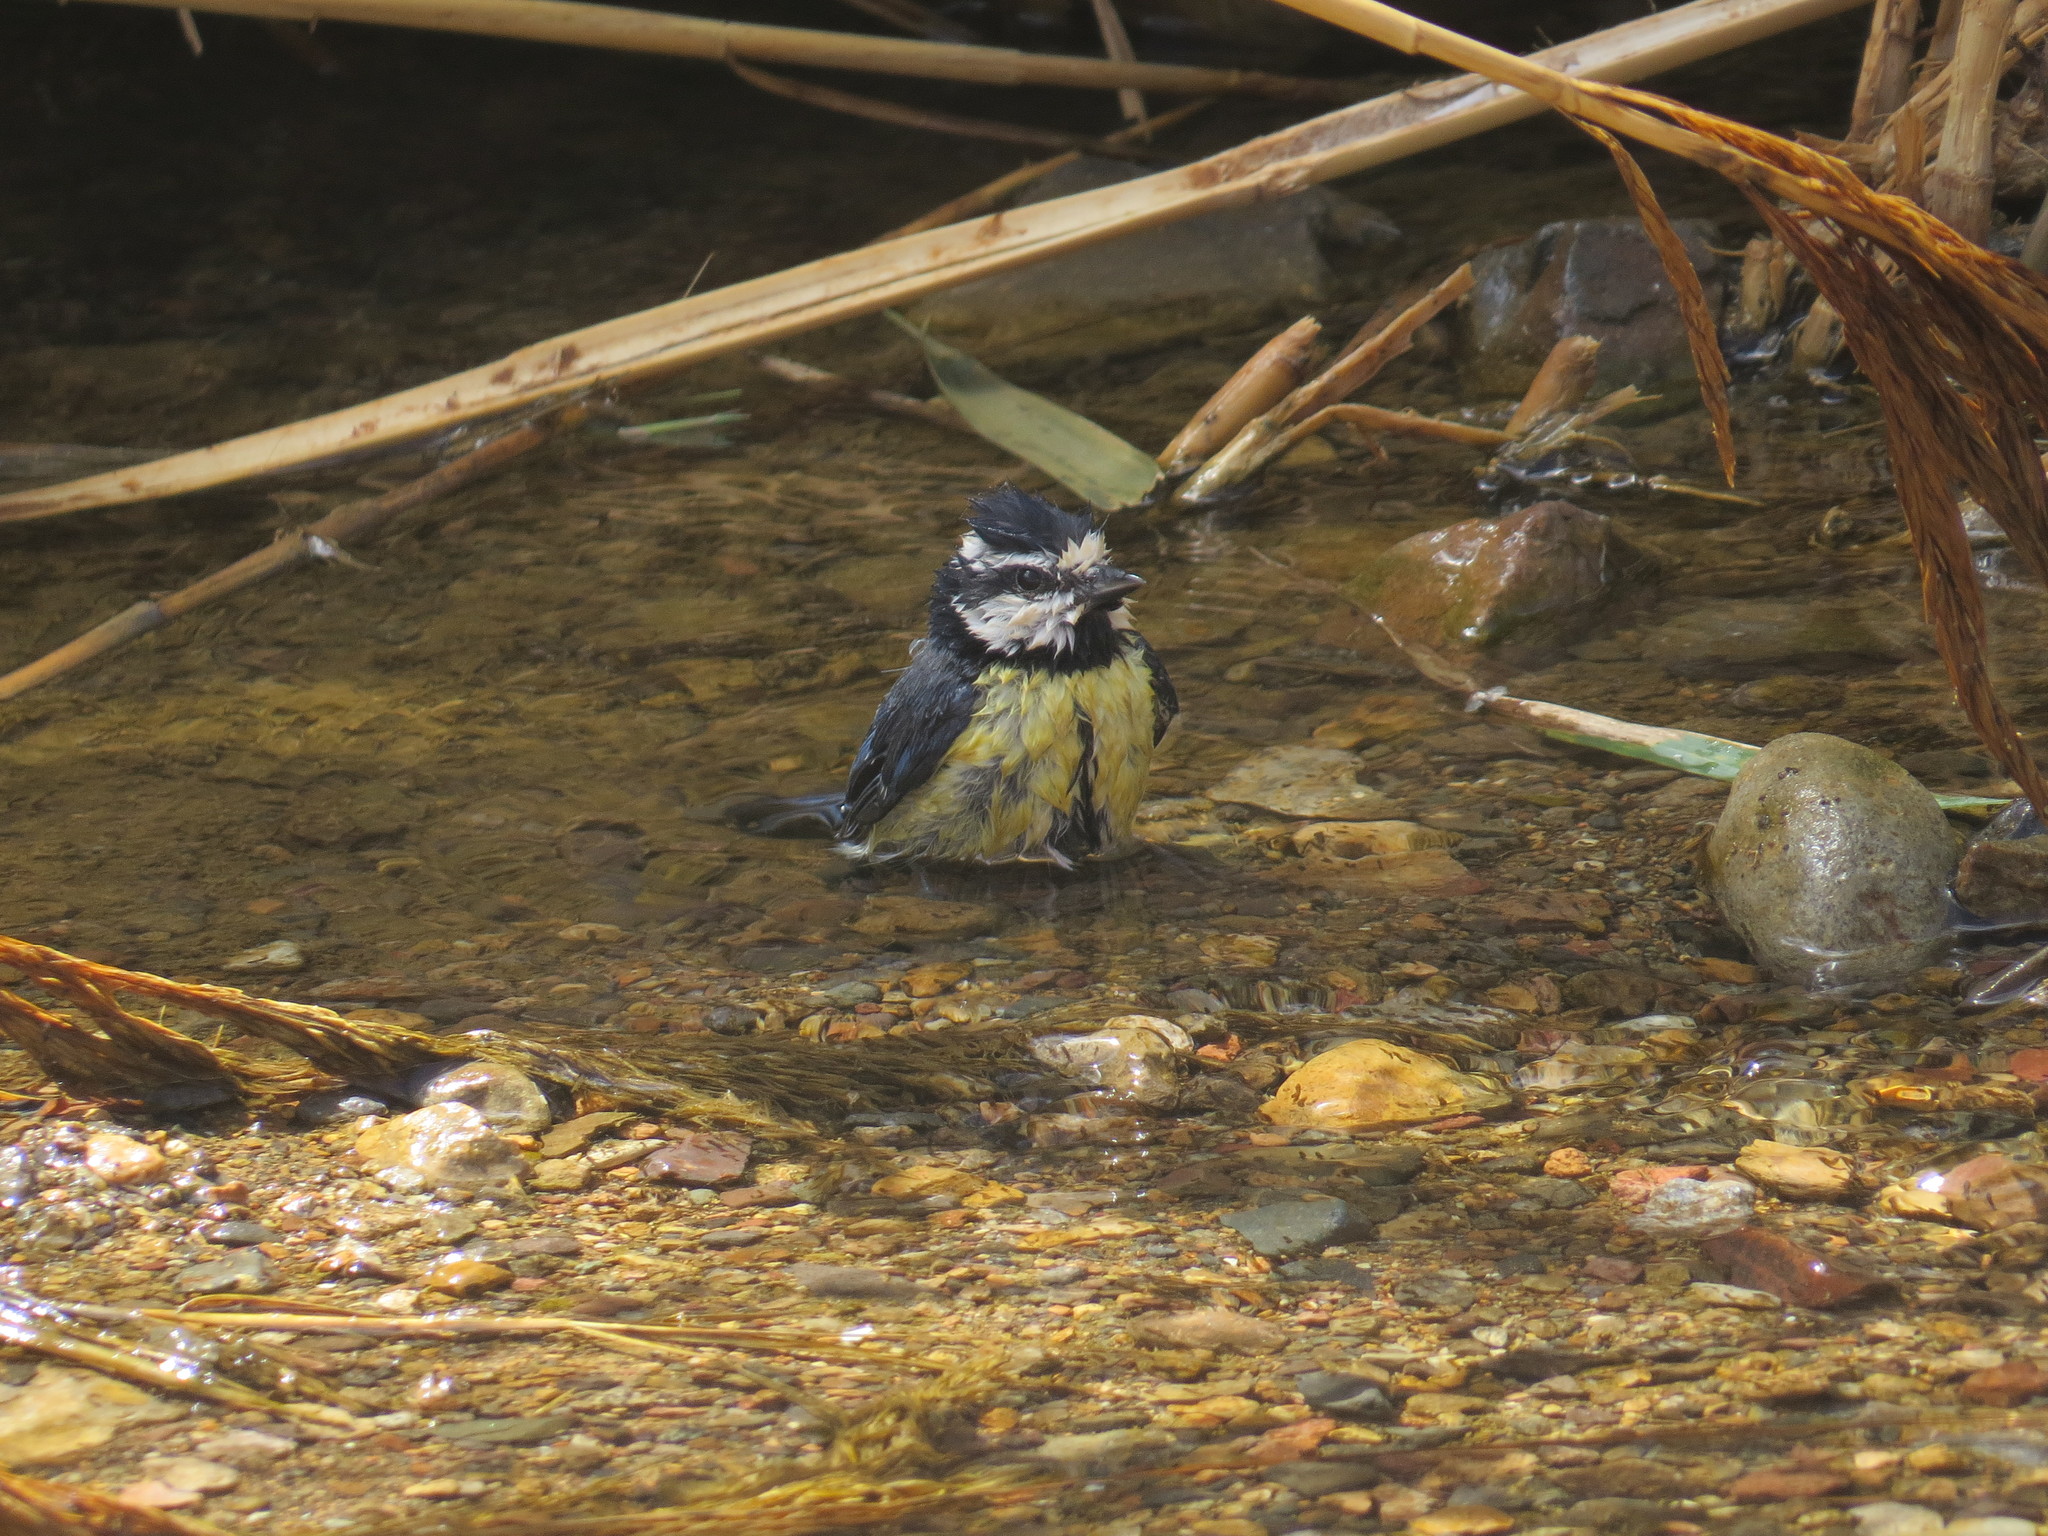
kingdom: Animalia
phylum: Chordata
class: Aves
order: Passeriformes
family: Paridae
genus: Cyanistes
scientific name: Cyanistes teneriffae
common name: African blue tit
